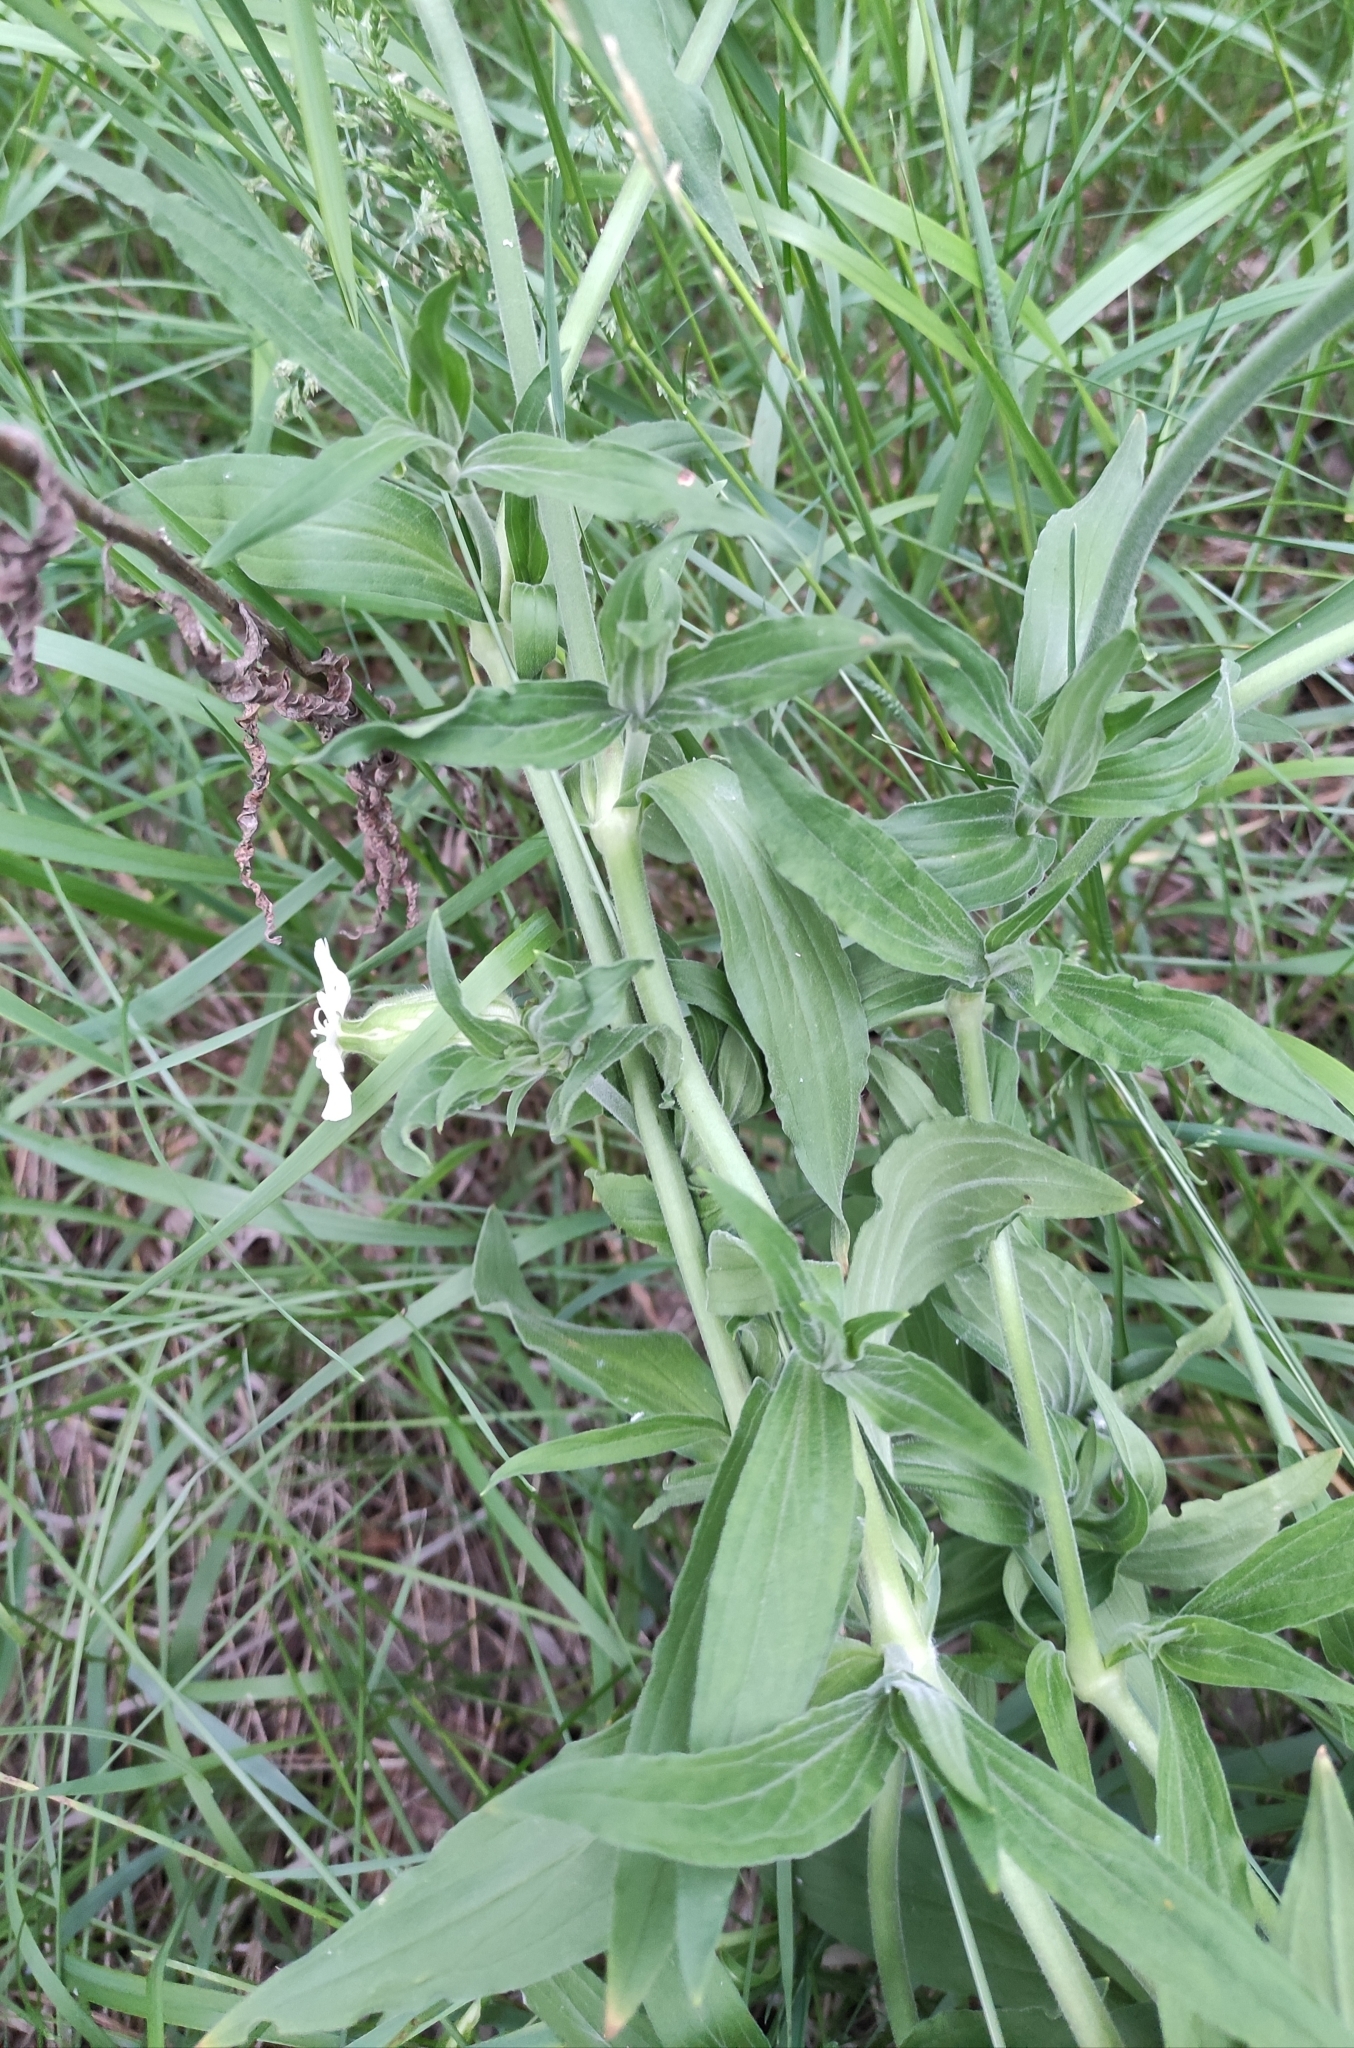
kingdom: Plantae
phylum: Tracheophyta
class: Magnoliopsida
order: Caryophyllales
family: Caryophyllaceae
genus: Silene
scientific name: Silene latifolia
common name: White campion
